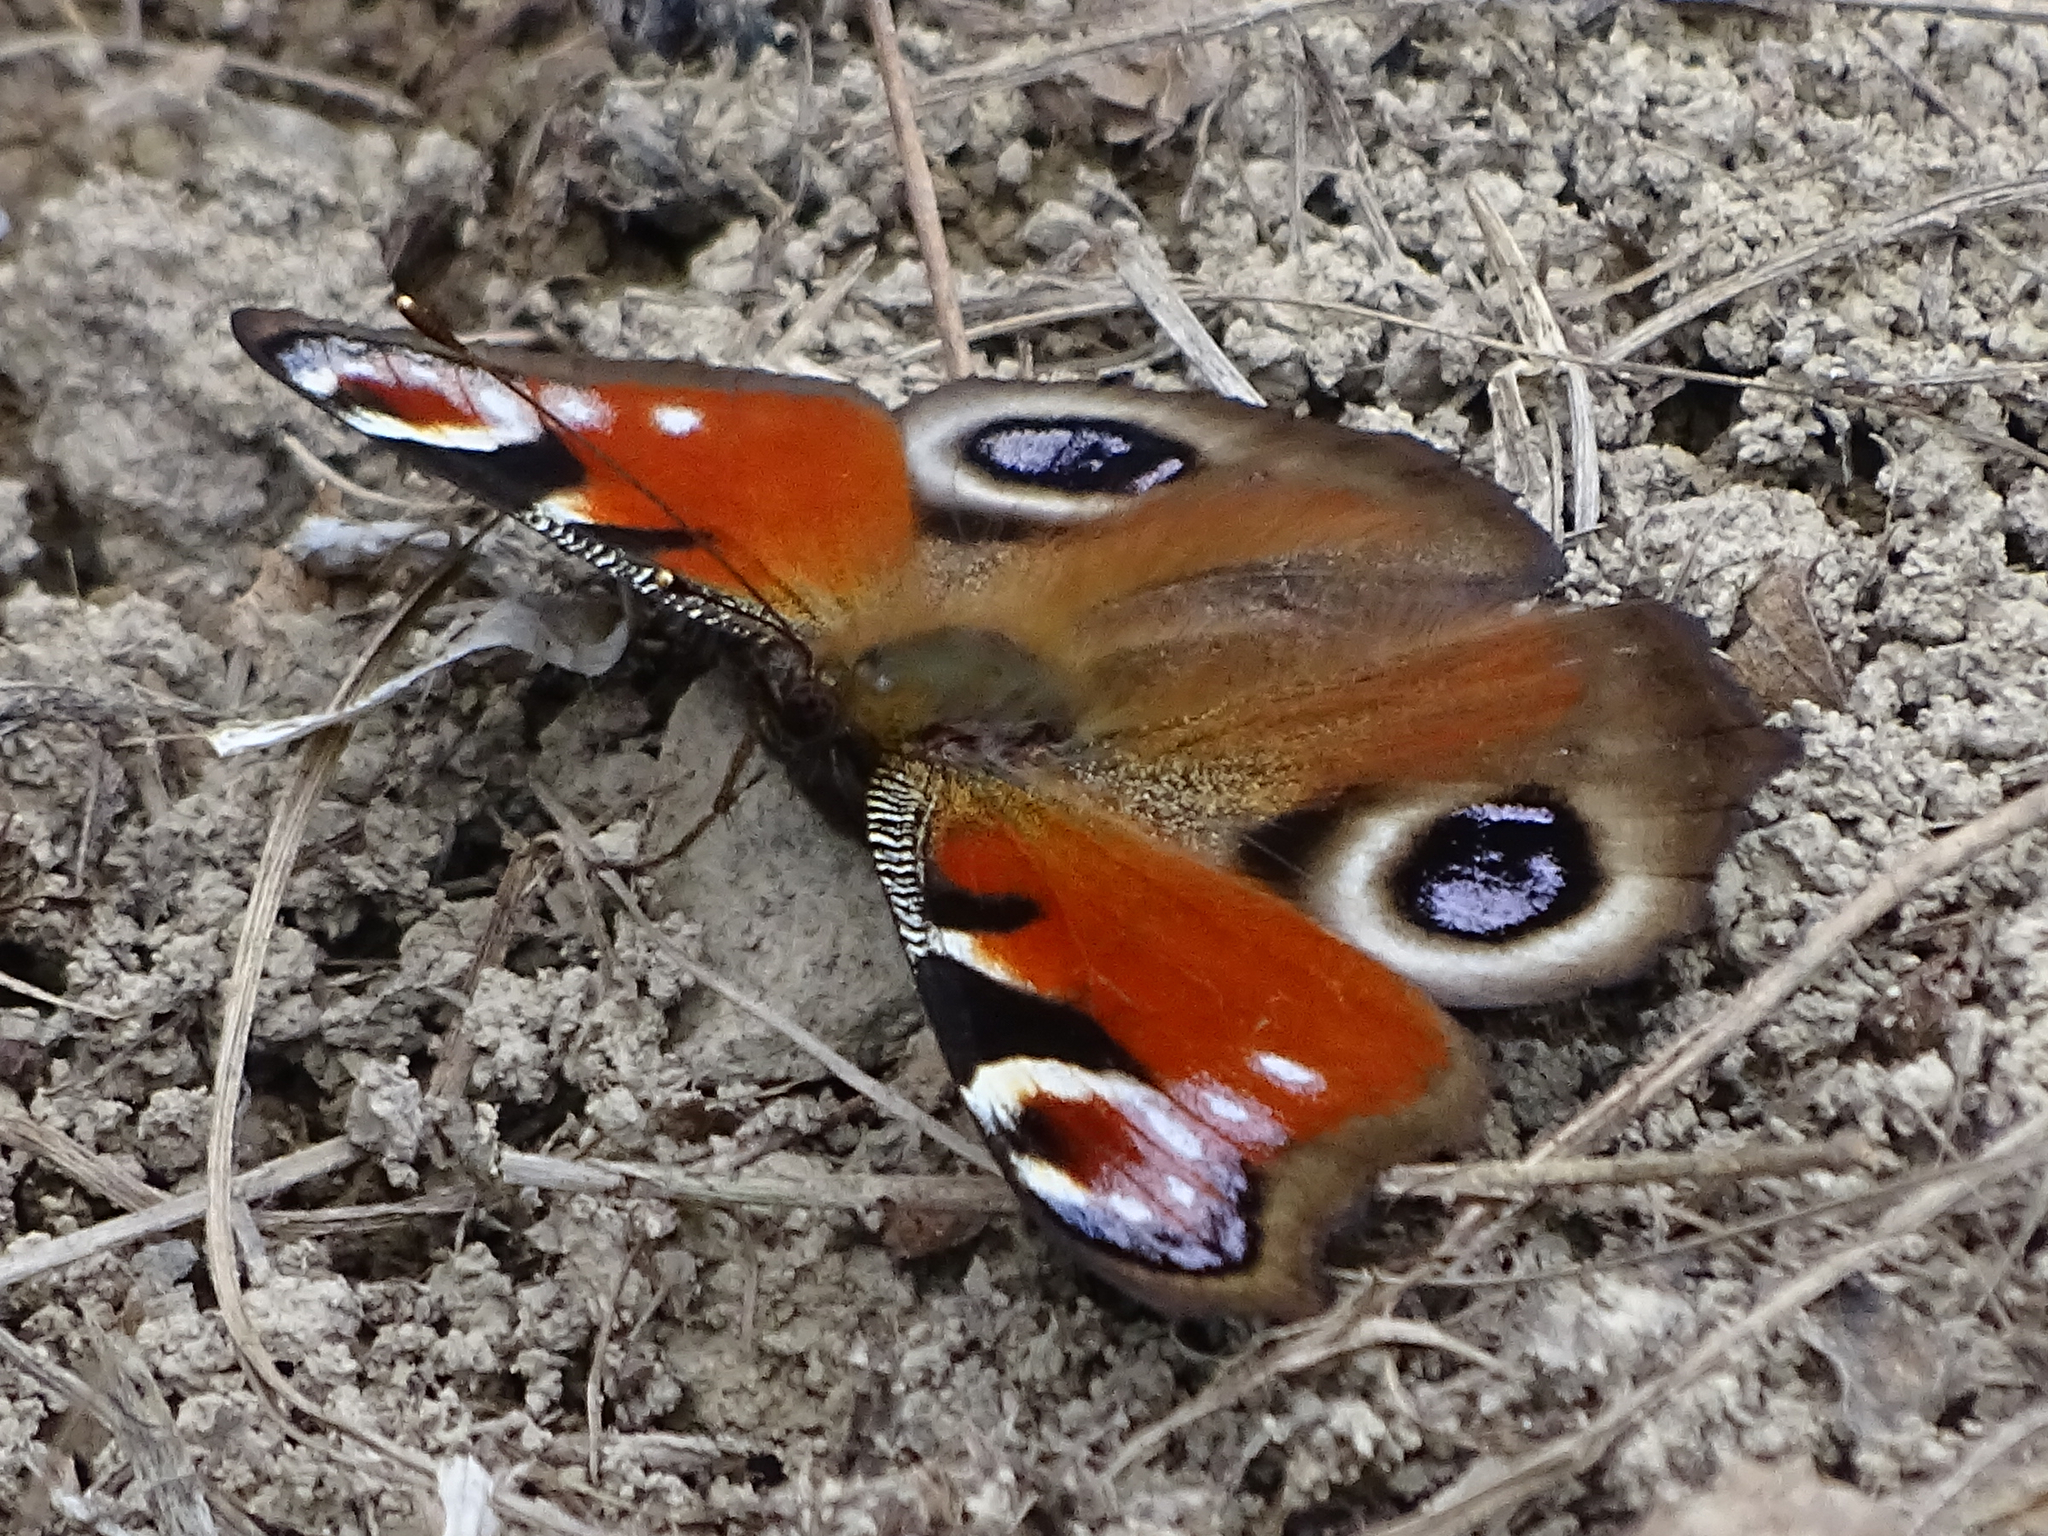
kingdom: Animalia
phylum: Arthropoda
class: Insecta
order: Lepidoptera
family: Nymphalidae
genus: Aglais
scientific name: Aglais io
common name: Peacock
